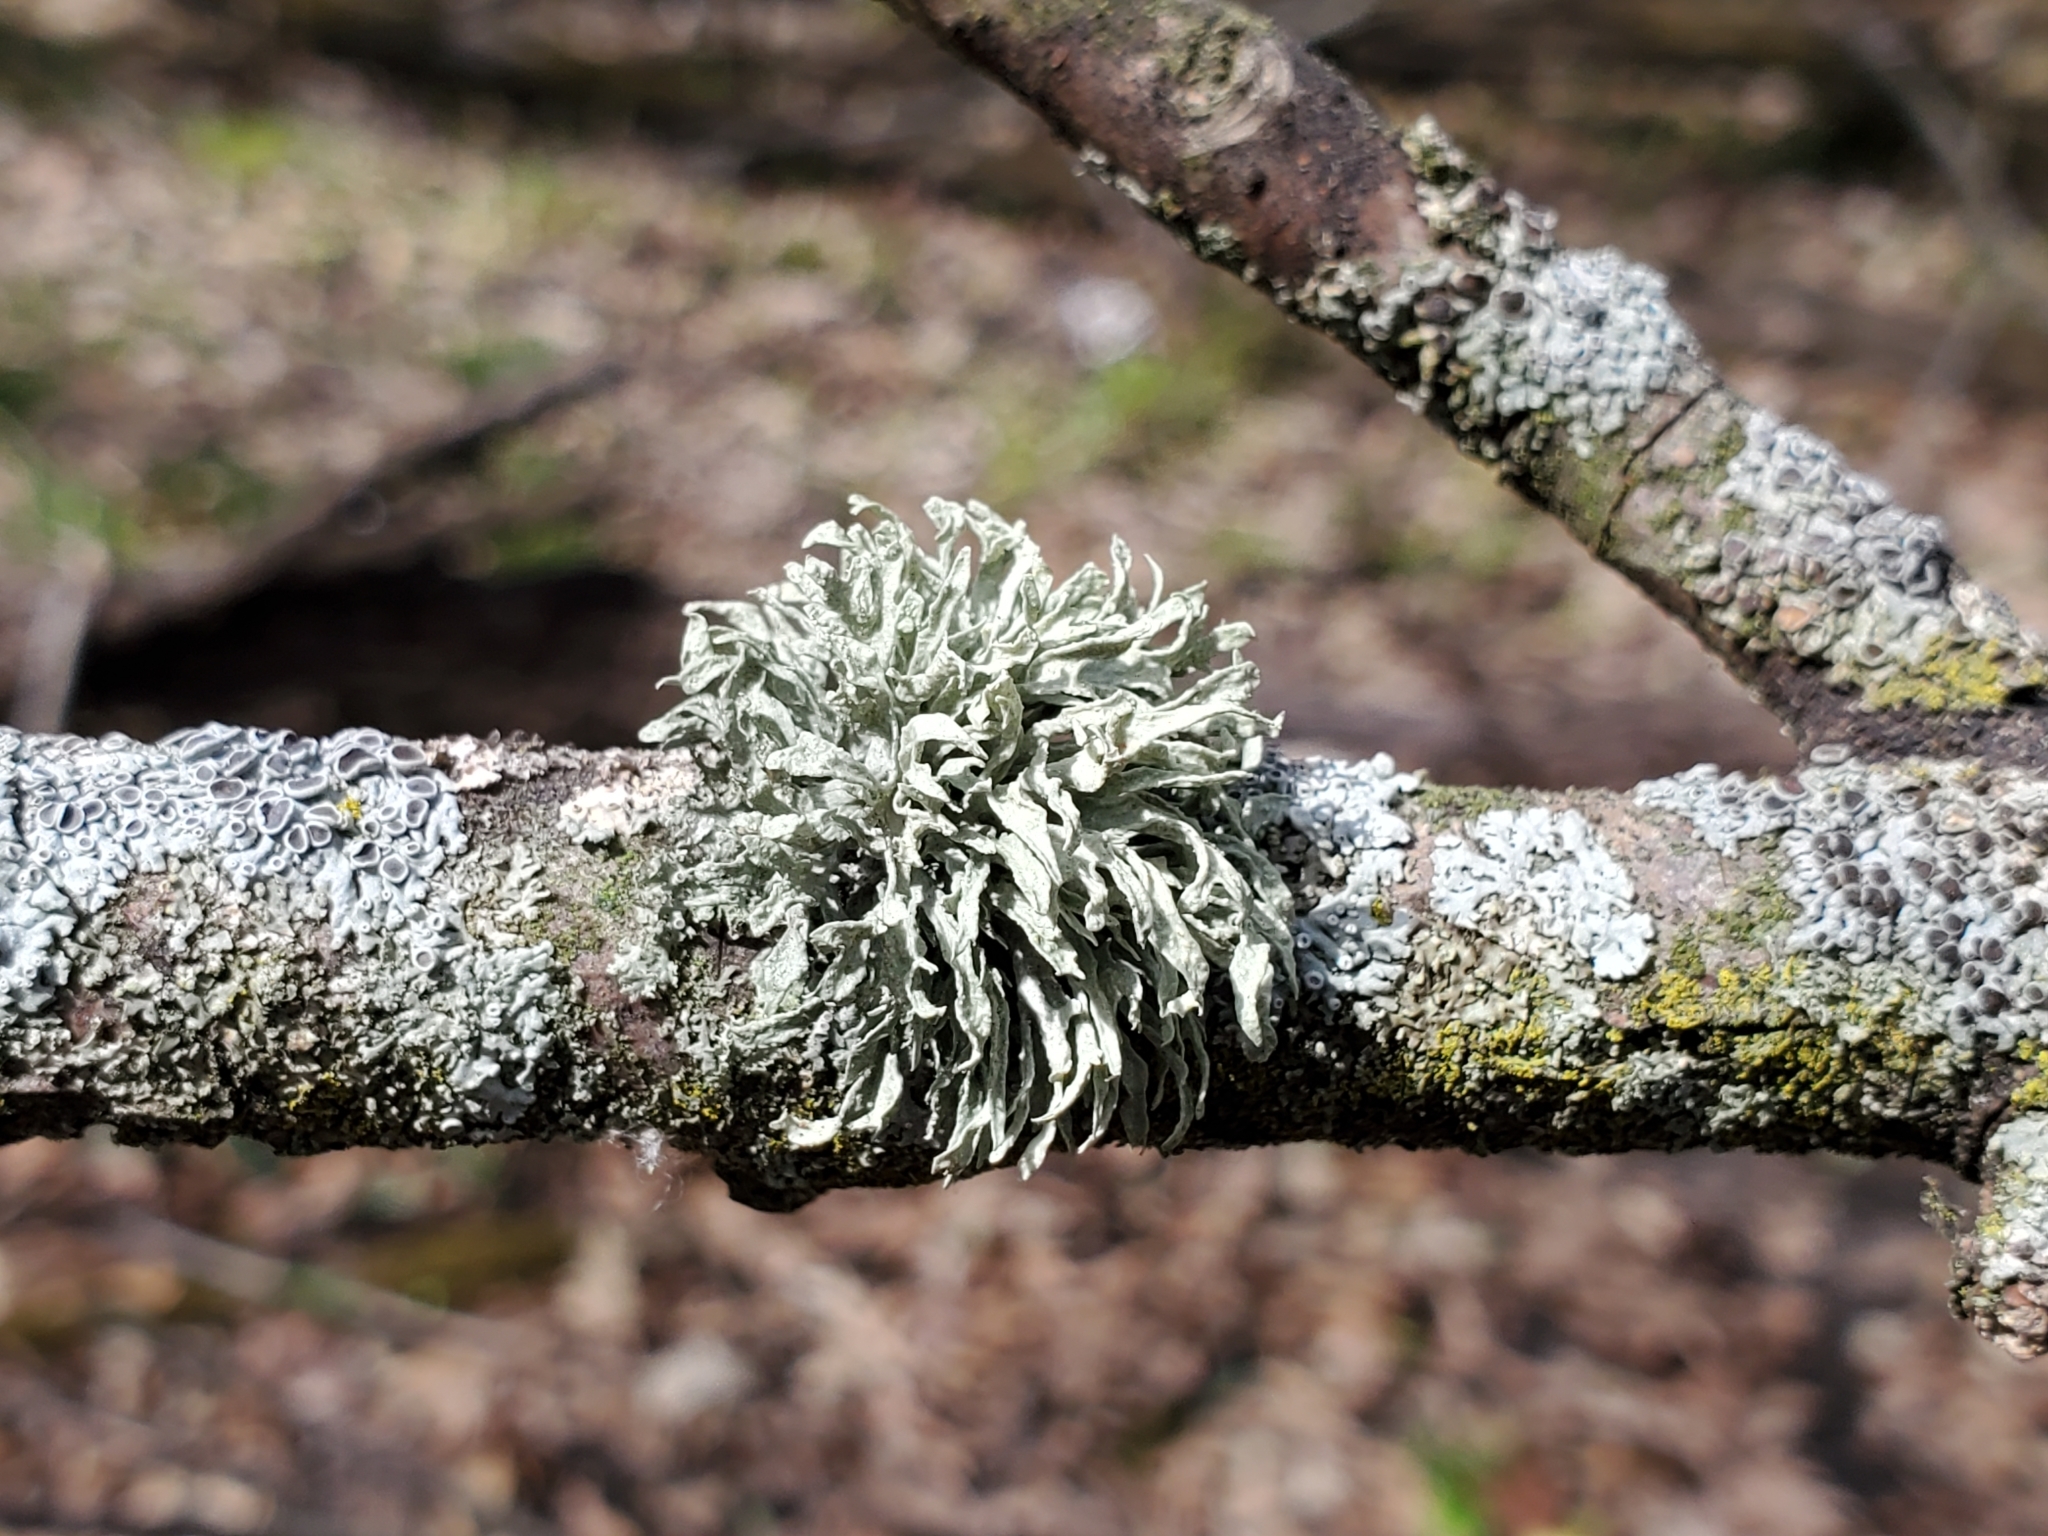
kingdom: Fungi
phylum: Ascomycota
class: Lecanoromycetes
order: Lecanorales
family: Ramalinaceae
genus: Ramalina
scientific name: Ramalina americana
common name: Sinewed bush lichen
